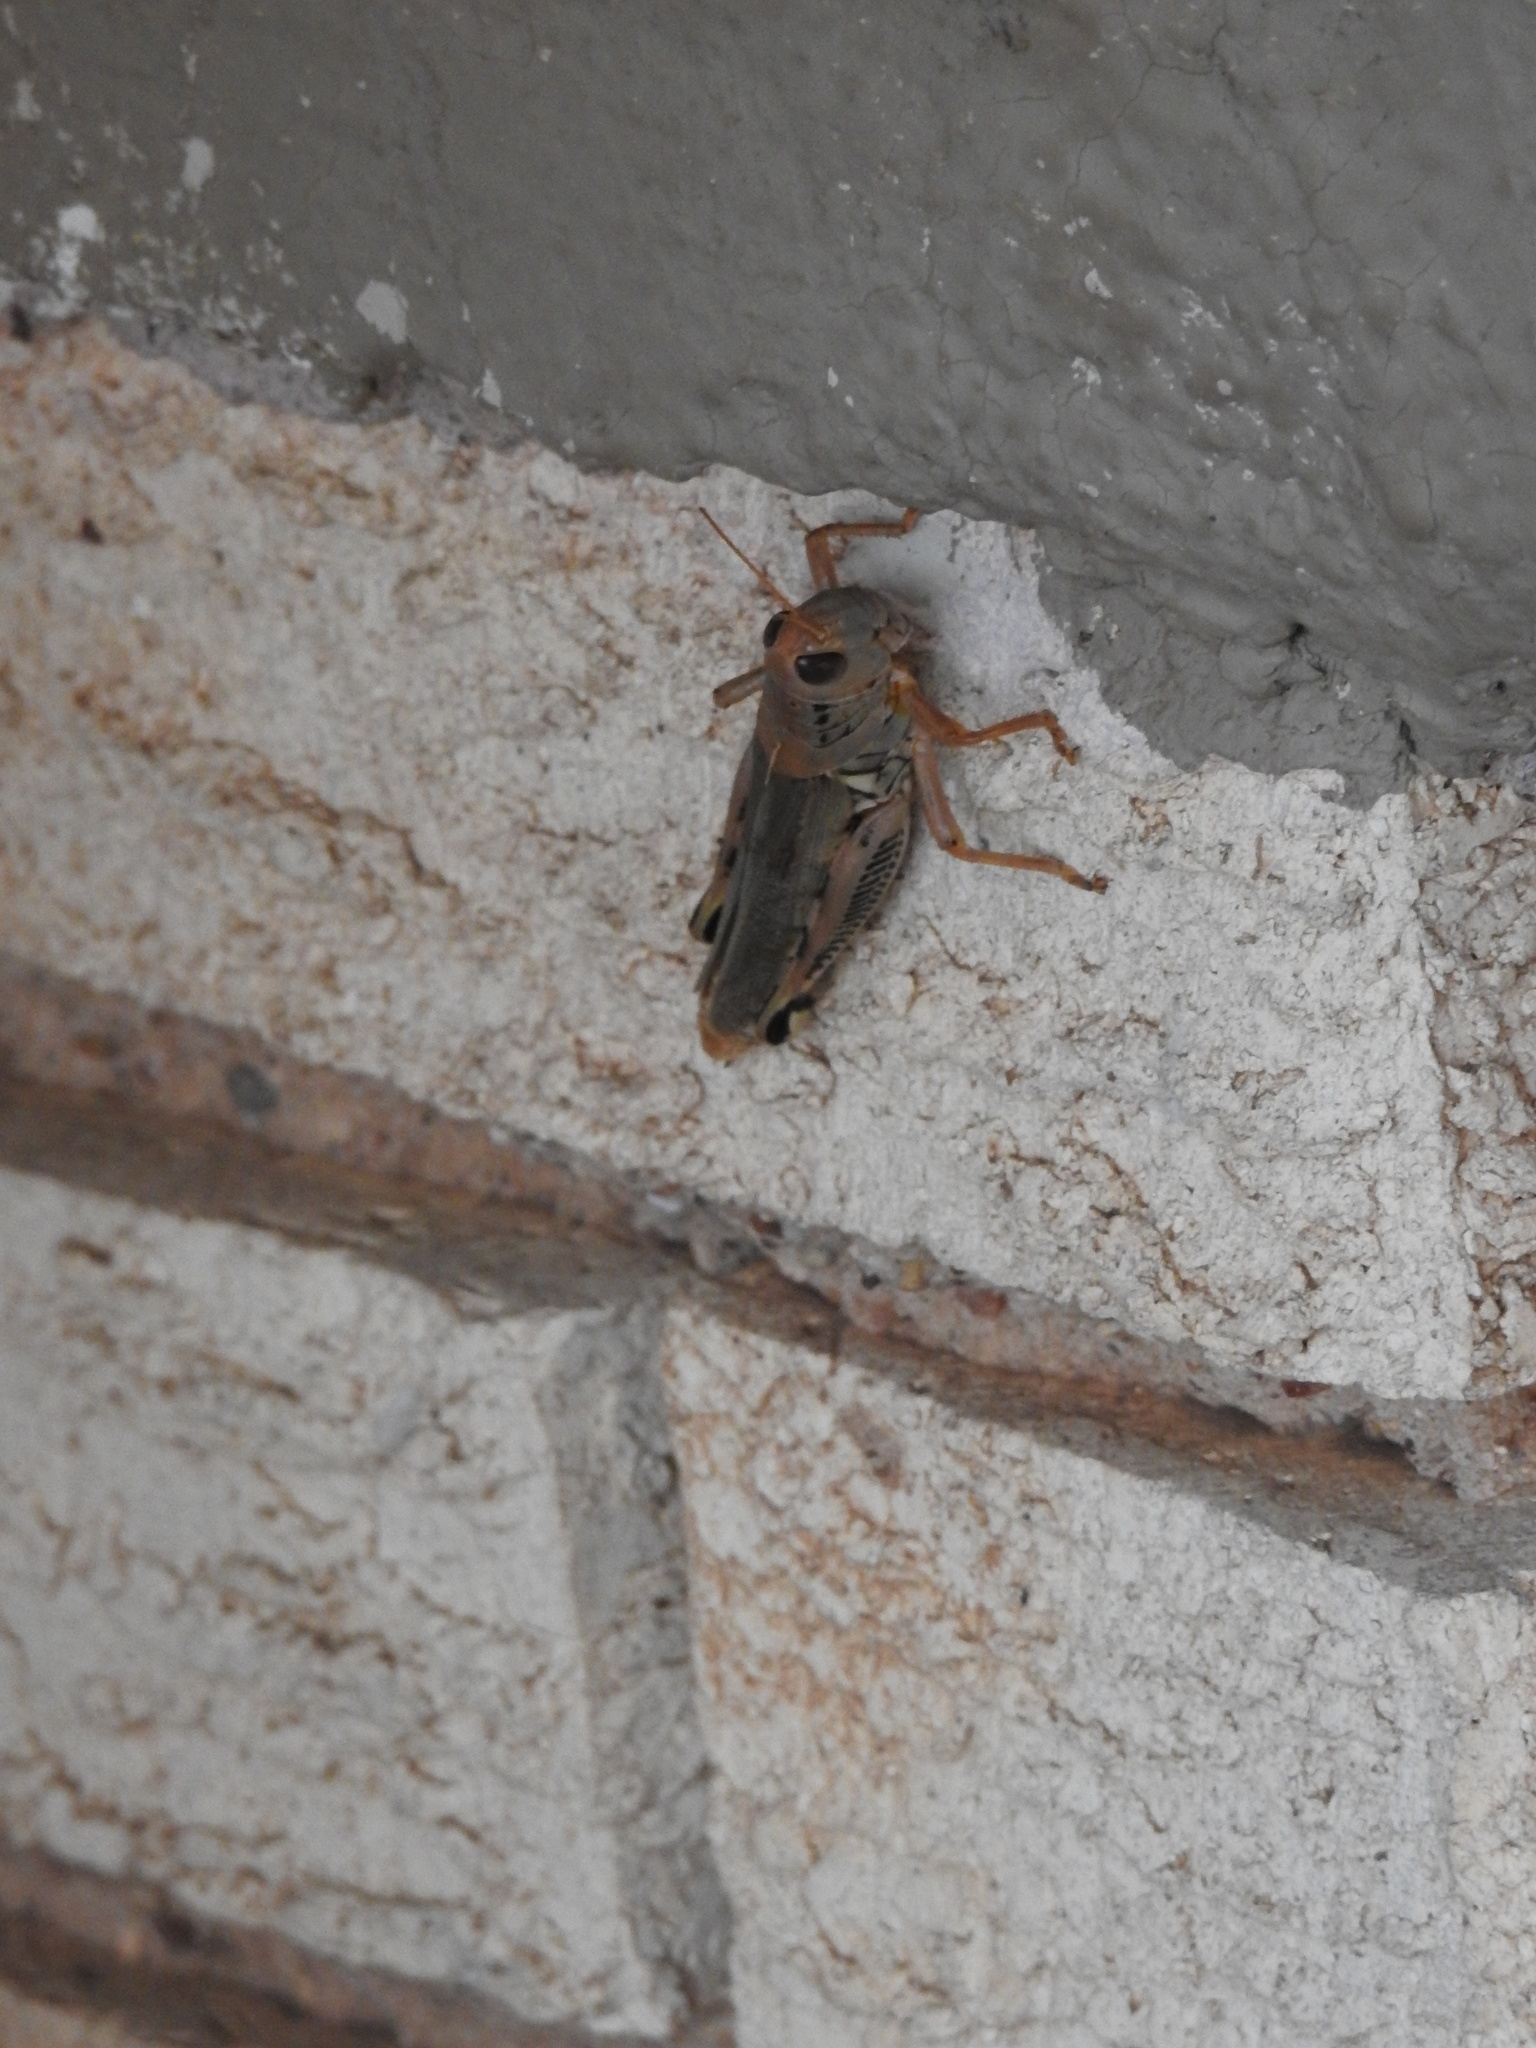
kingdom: Animalia
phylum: Arthropoda
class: Insecta
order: Orthoptera
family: Acrididae
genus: Melanoplus
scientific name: Melanoplus differentialis
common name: Differential grasshopper
